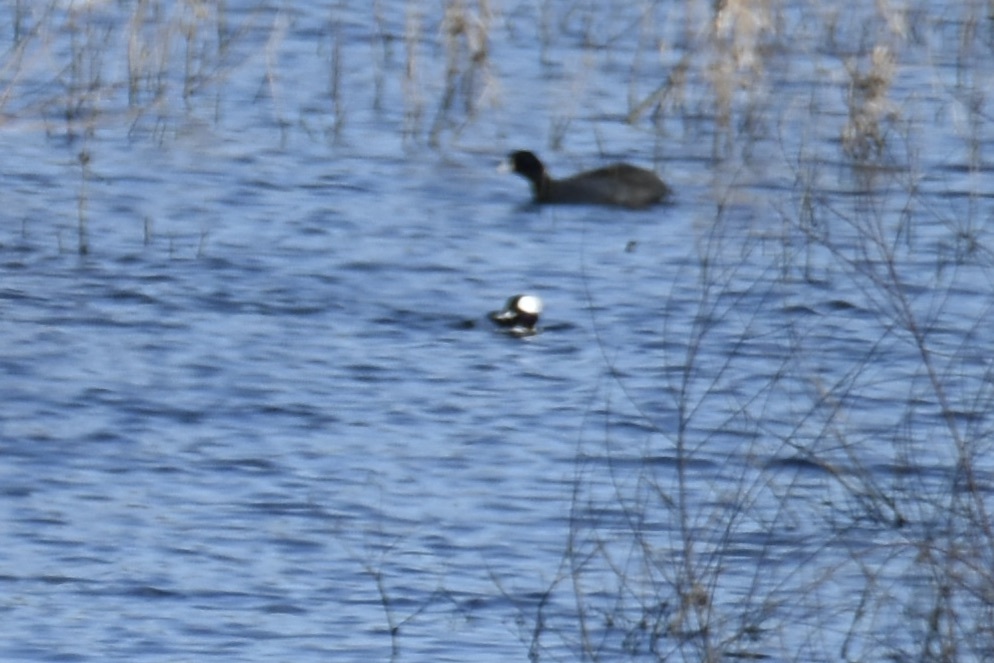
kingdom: Animalia
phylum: Chordata
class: Aves
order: Anseriformes
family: Anatidae
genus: Bucephala
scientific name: Bucephala albeola
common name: Bufflehead
